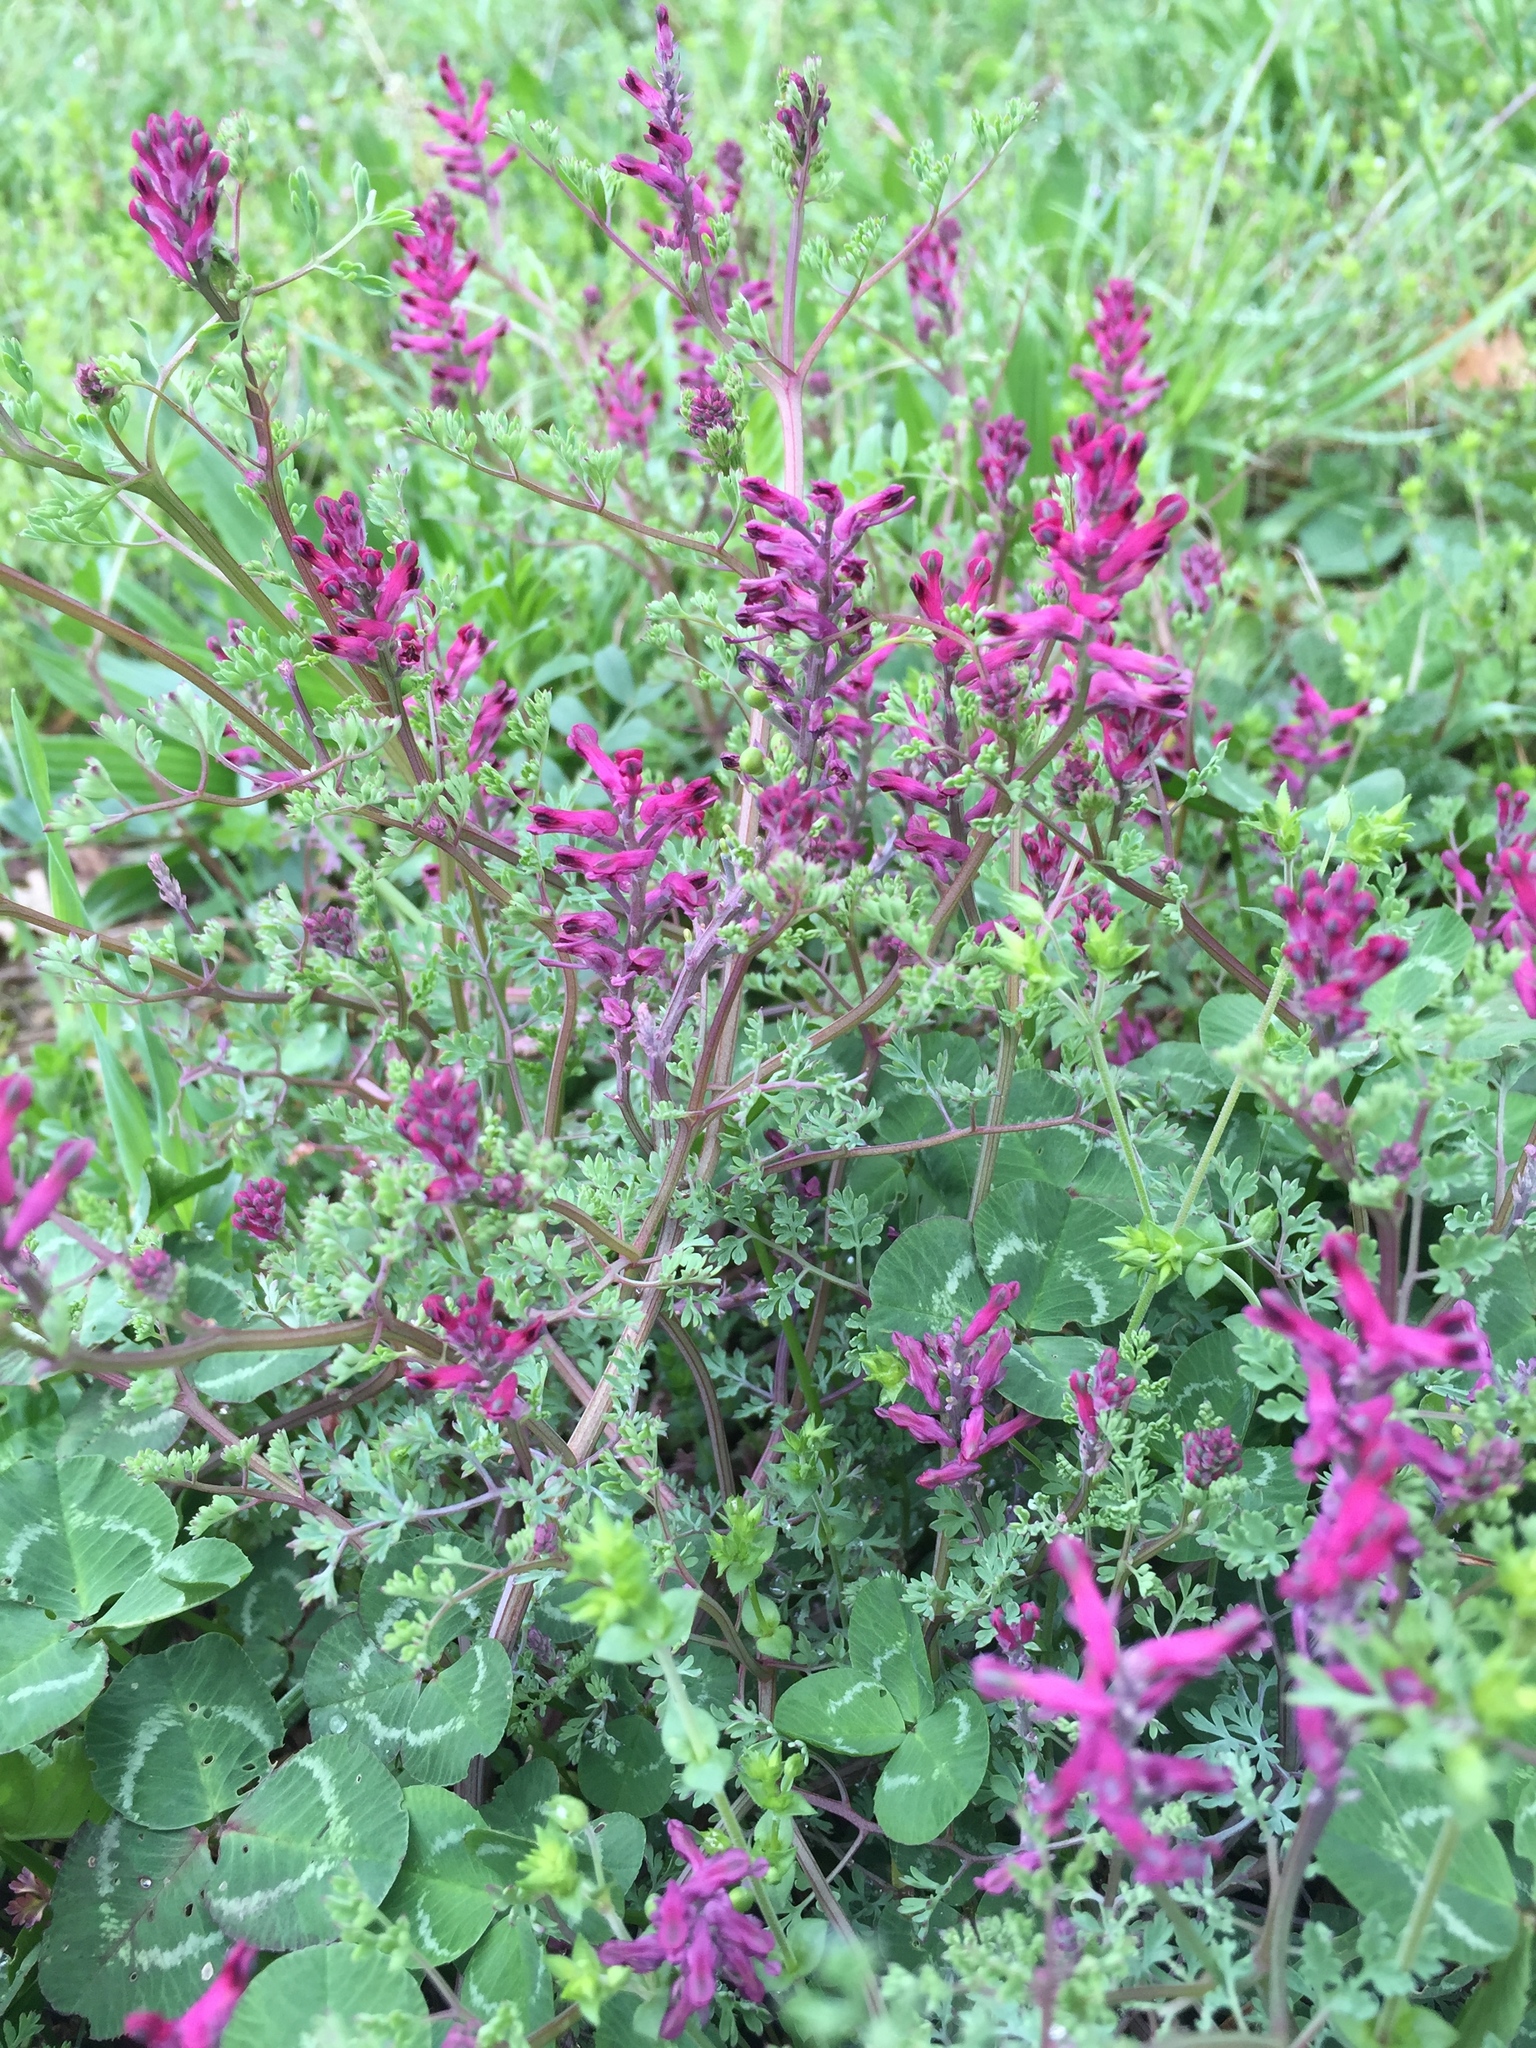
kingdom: Plantae
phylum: Tracheophyta
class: Magnoliopsida
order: Ranunculales
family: Papaveraceae
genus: Fumaria
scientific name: Fumaria officinalis
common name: Common fumitory
